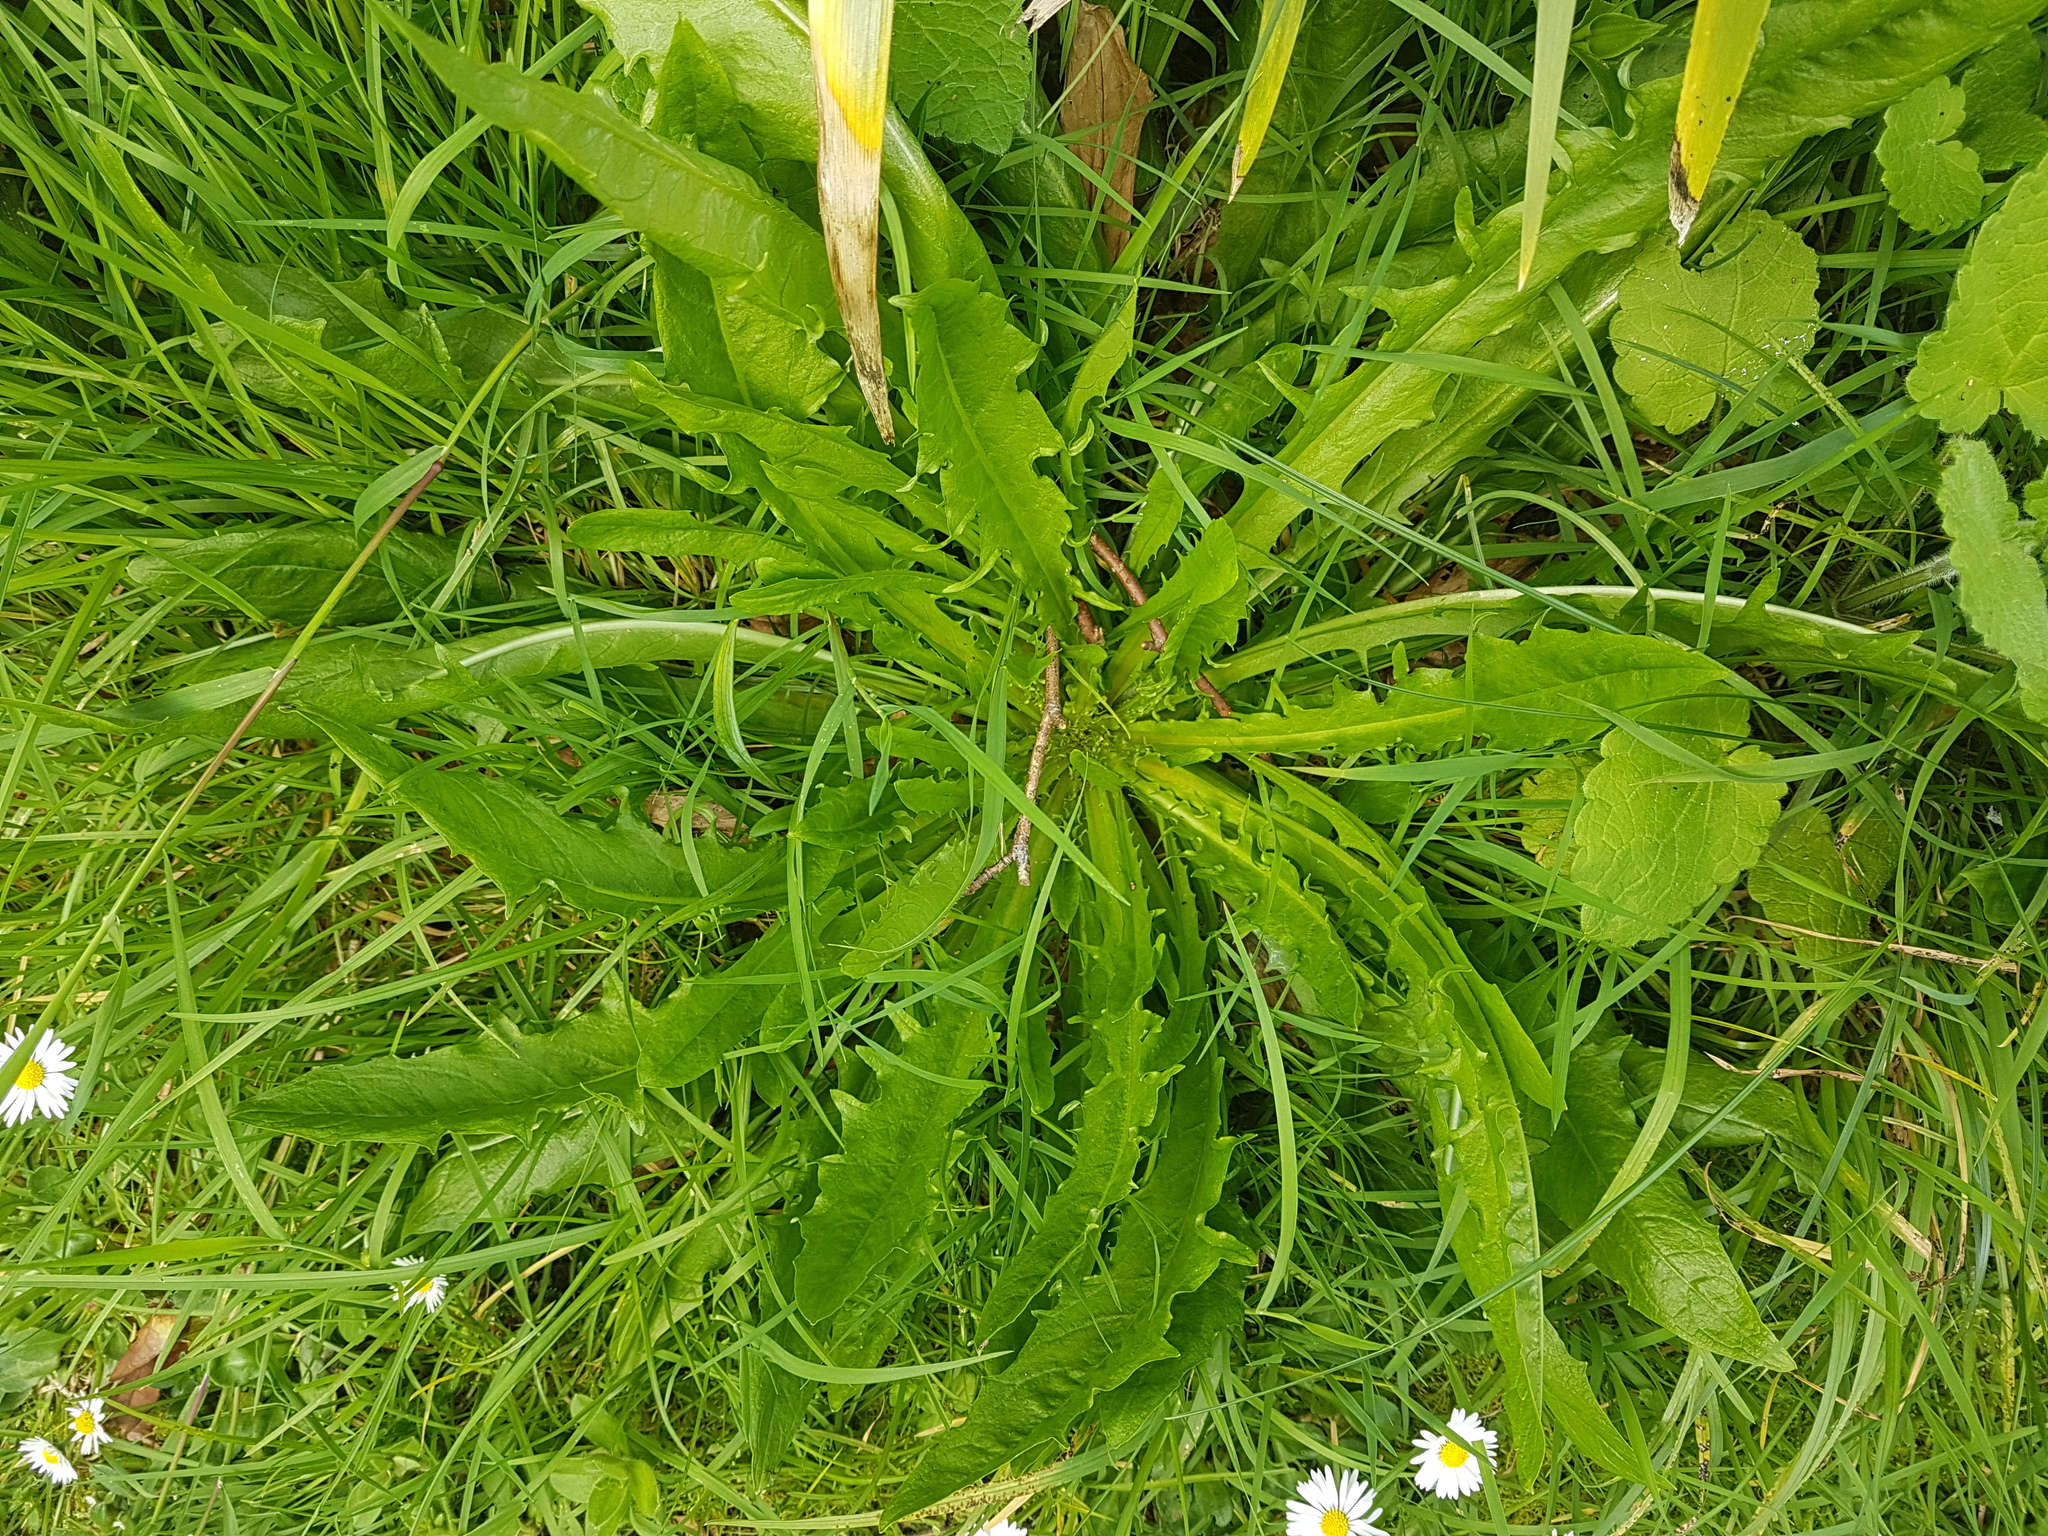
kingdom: Plantae
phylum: Tracheophyta
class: Magnoliopsida
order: Asterales
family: Asteraceae
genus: Crepis
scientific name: Crepis capillaris
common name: Smooth hawksbeard
